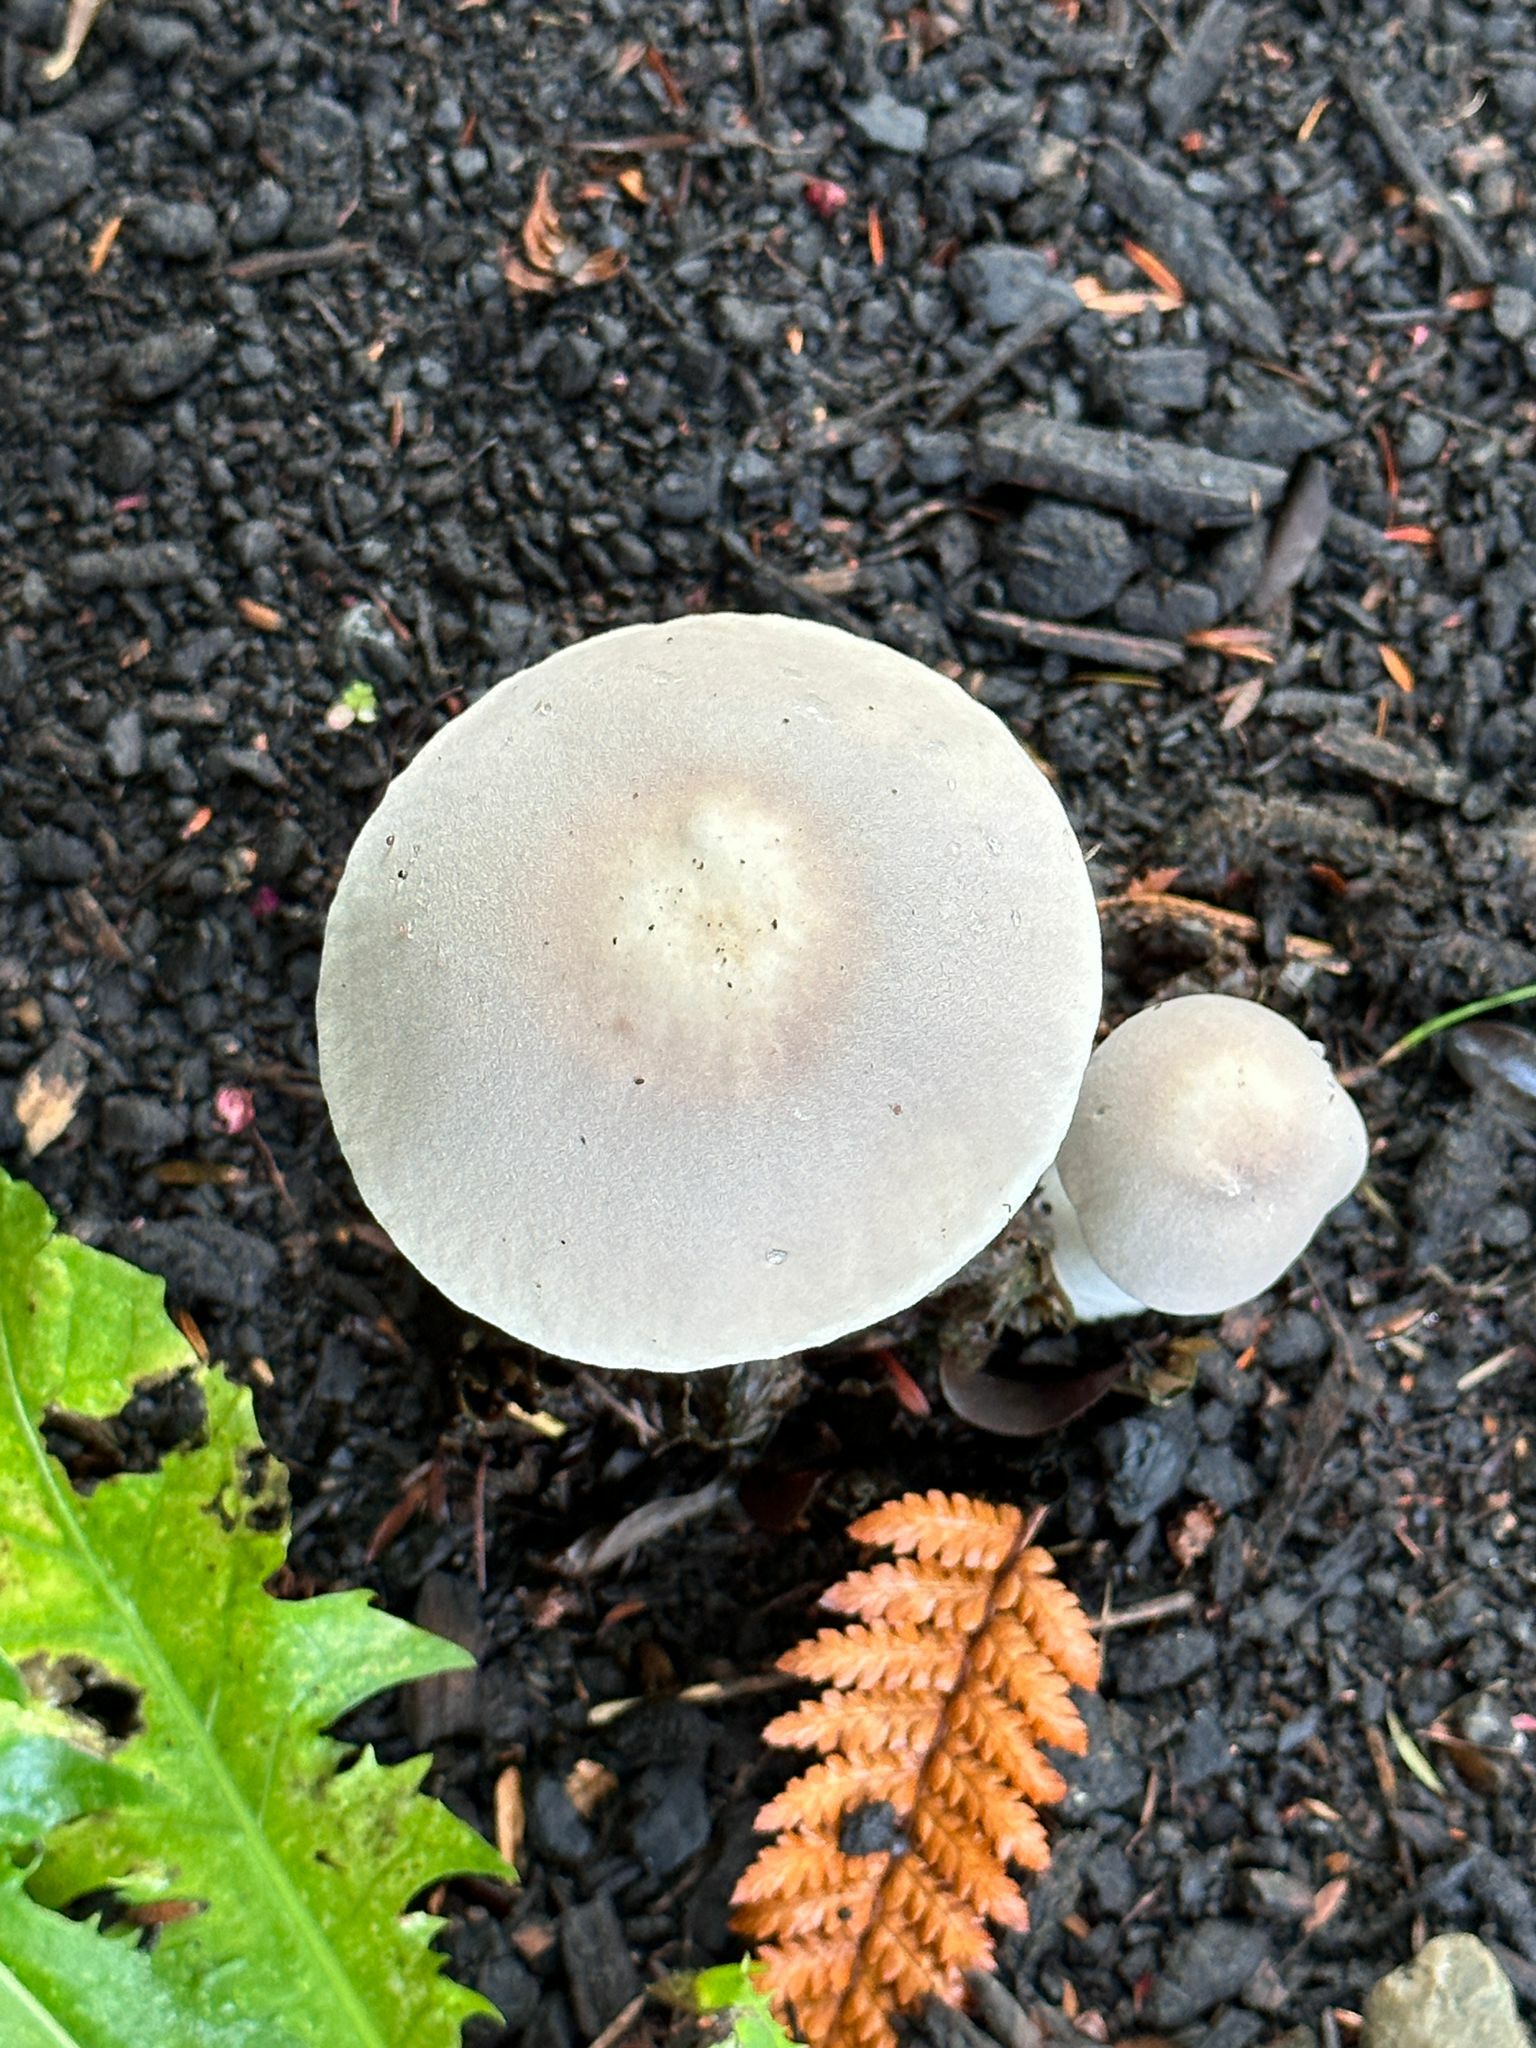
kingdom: Fungi
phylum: Basidiomycota
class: Agaricomycetes
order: Agaricales
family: Agaricaceae
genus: Leucoagaricus
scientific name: Leucoagaricus leucothites
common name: White dapperling
